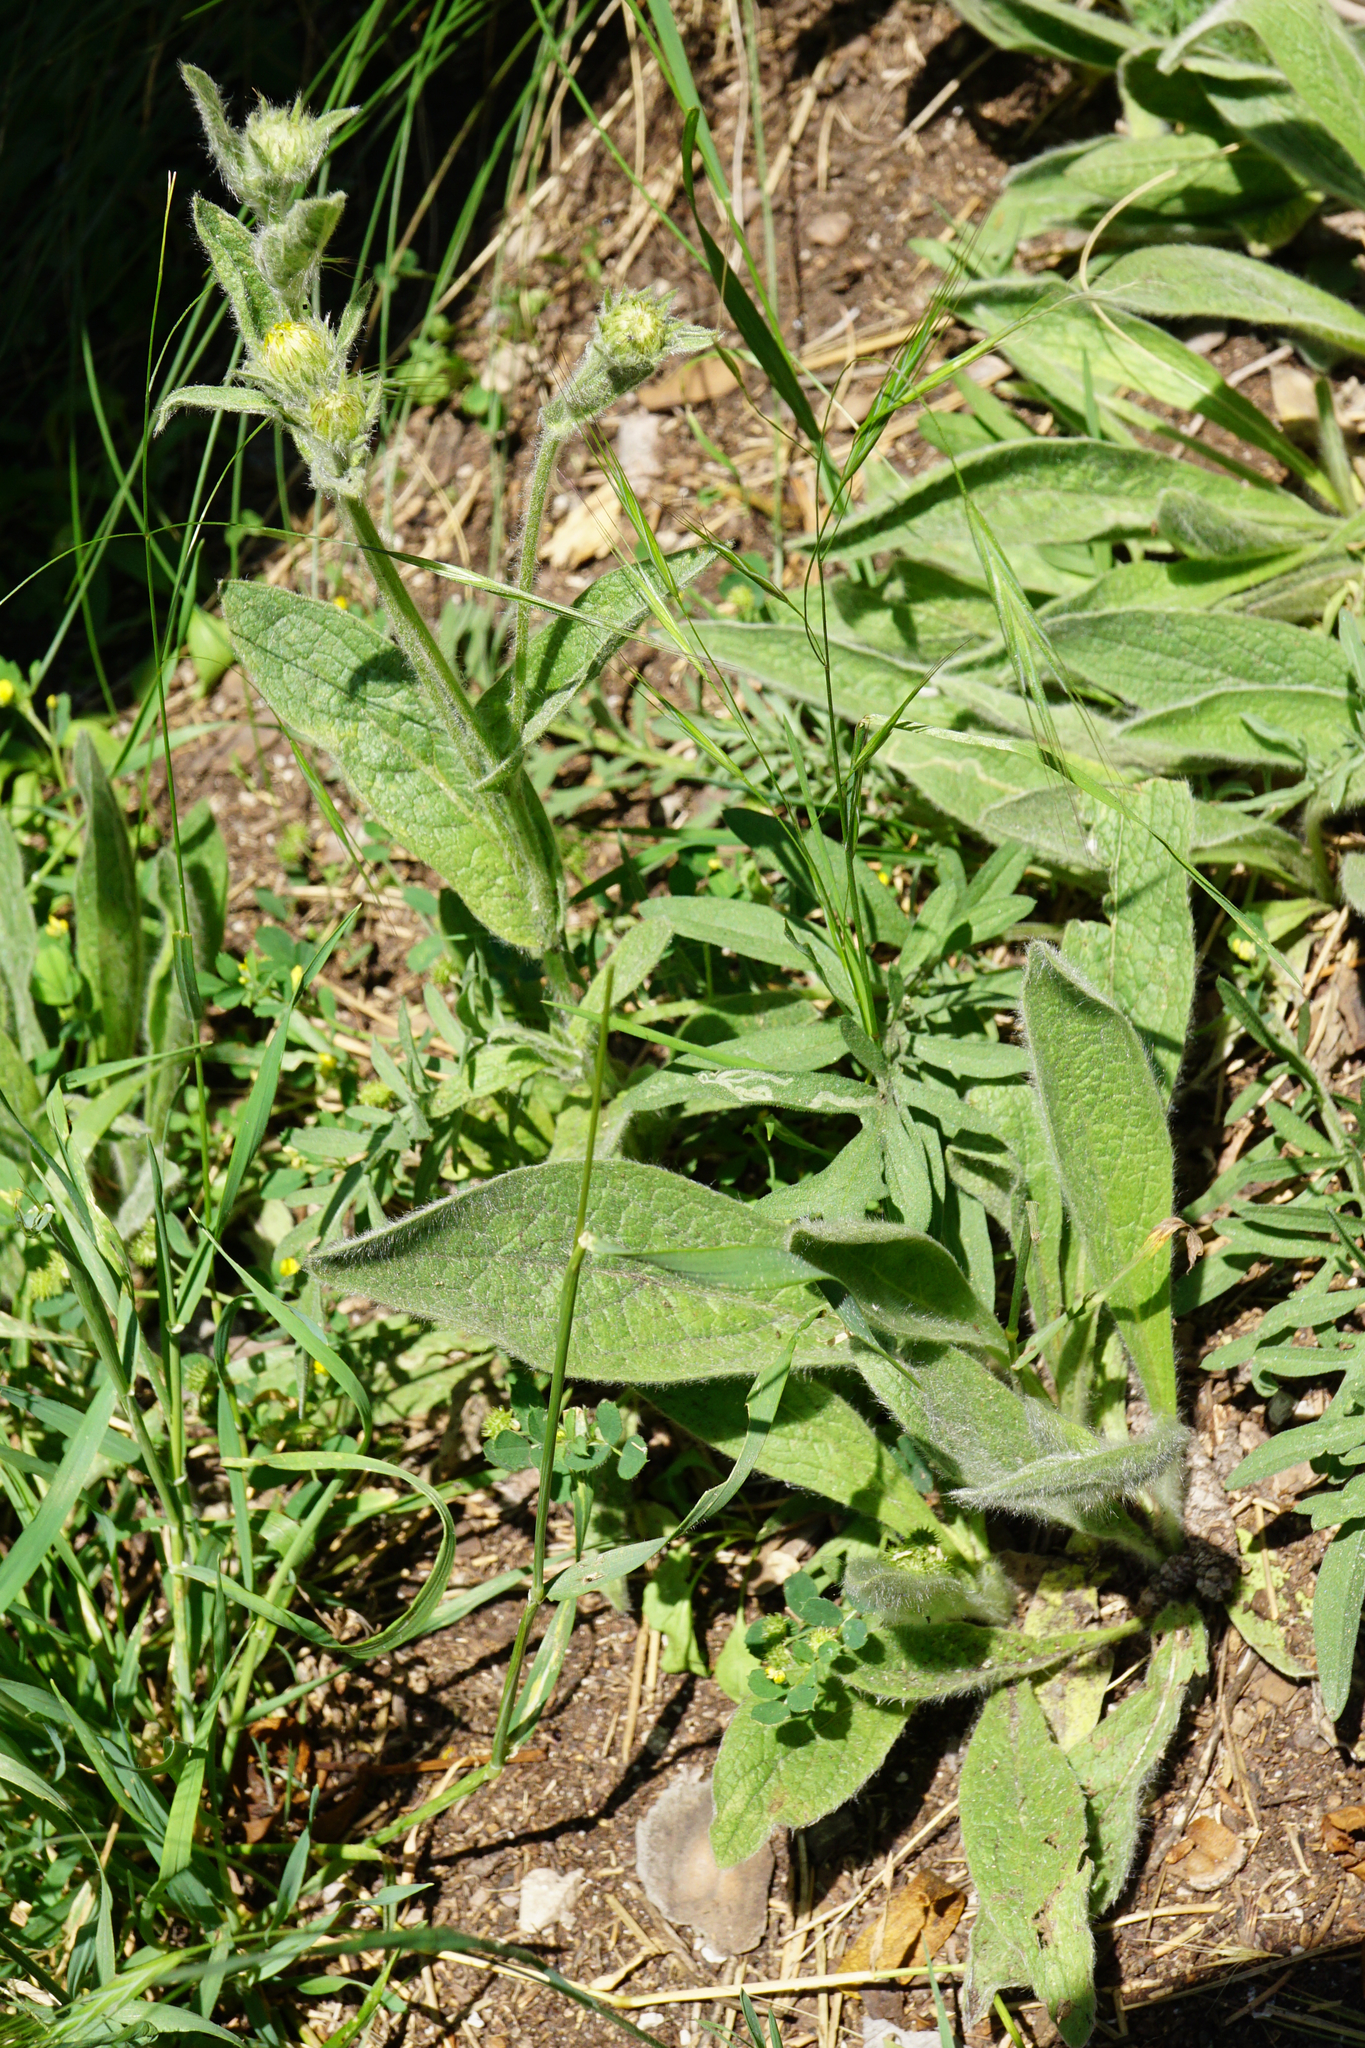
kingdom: Plantae
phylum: Tracheophyta
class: Magnoliopsida
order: Asterales
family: Asteraceae
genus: Pentanema
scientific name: Pentanema oculus-christi
